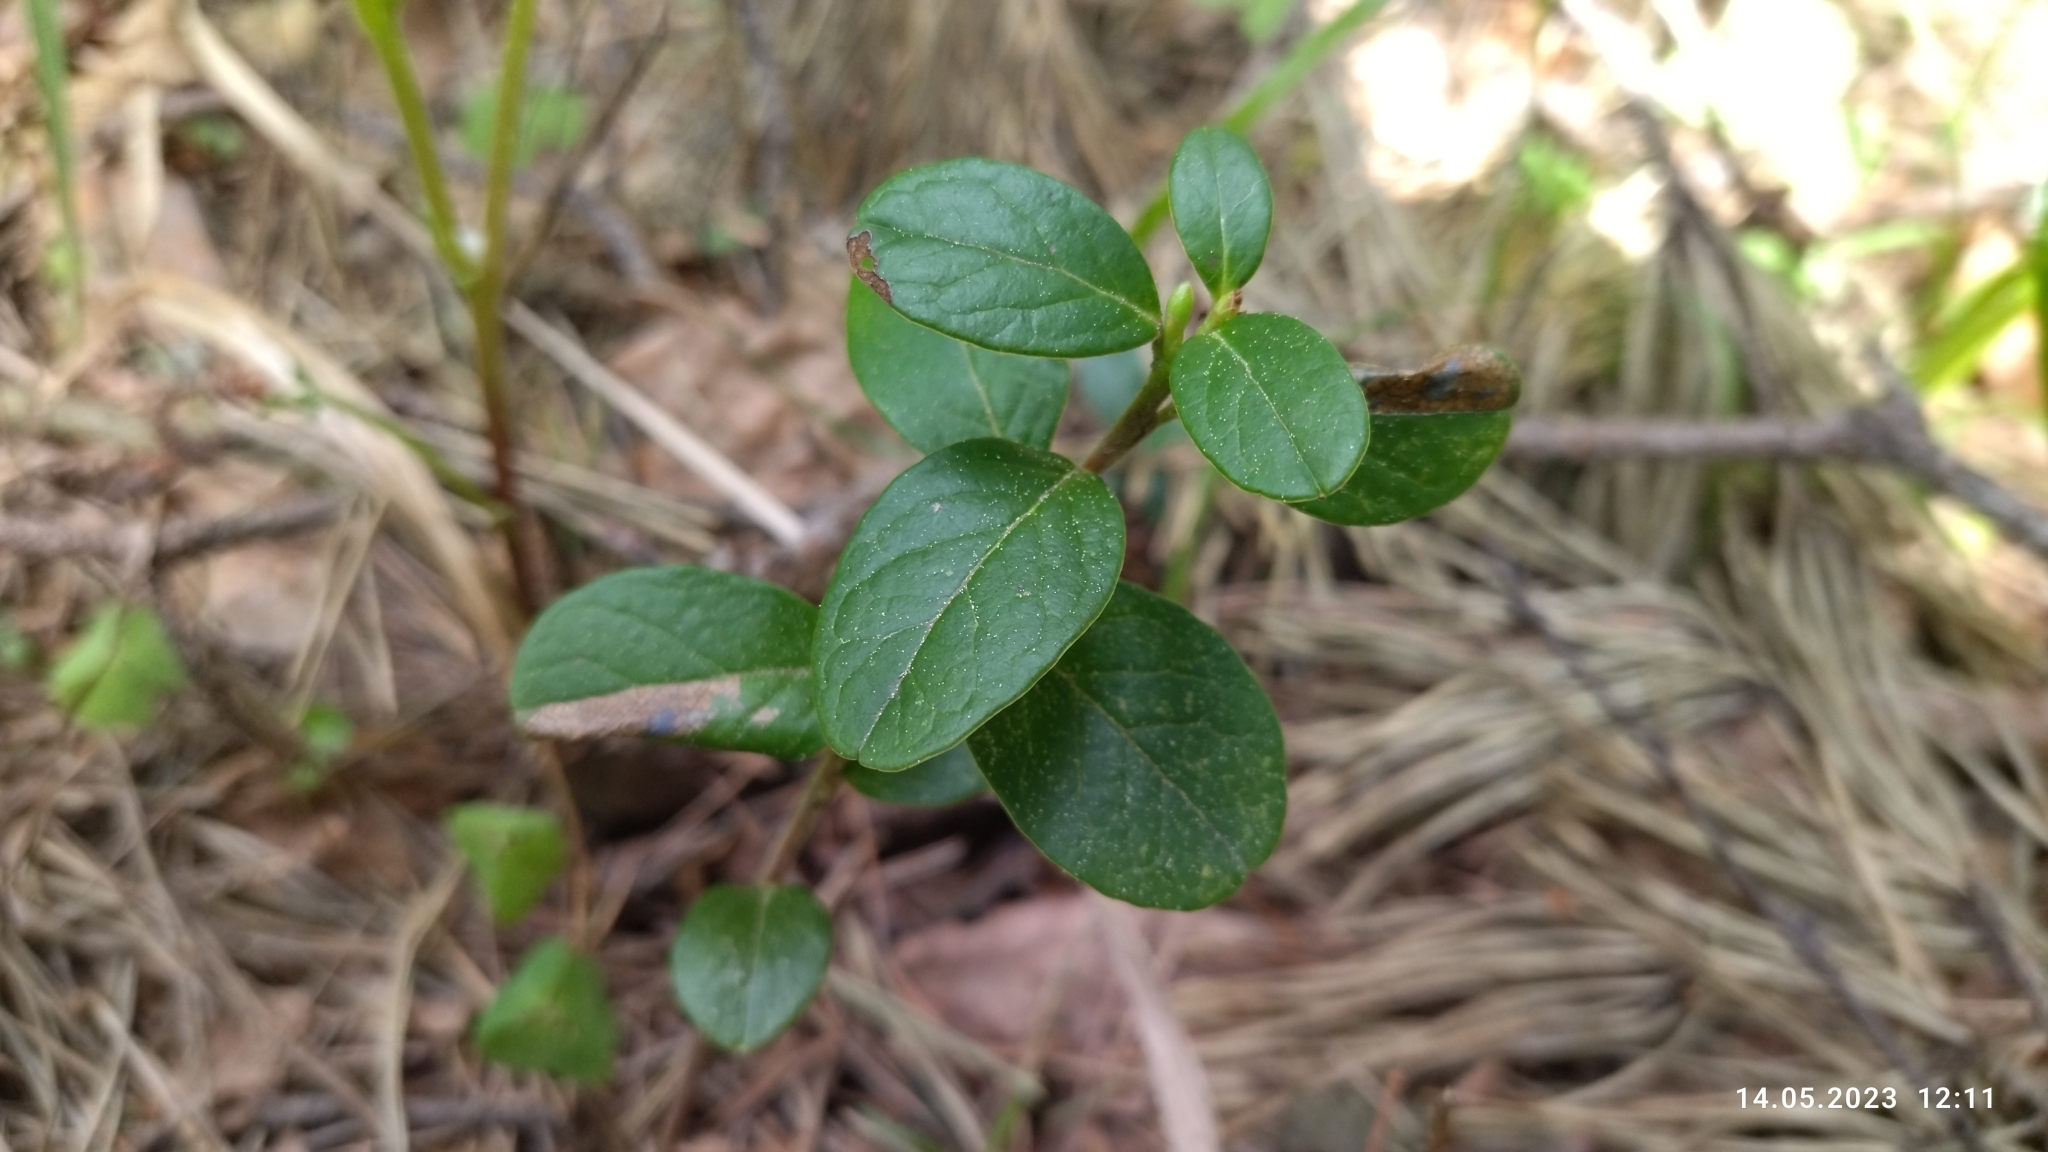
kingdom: Plantae
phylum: Tracheophyta
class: Magnoliopsida
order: Ericales
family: Ericaceae
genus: Vaccinium
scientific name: Vaccinium vitis-idaea
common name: Cowberry
